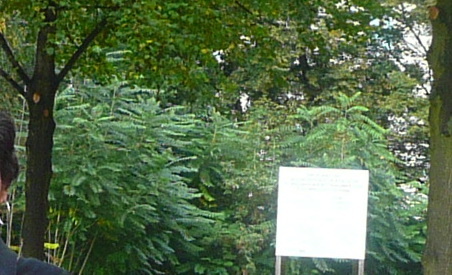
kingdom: Plantae
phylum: Tracheophyta
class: Magnoliopsida
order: Sapindales
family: Simaroubaceae
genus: Ailanthus
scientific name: Ailanthus altissima
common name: Tree-of-heaven
